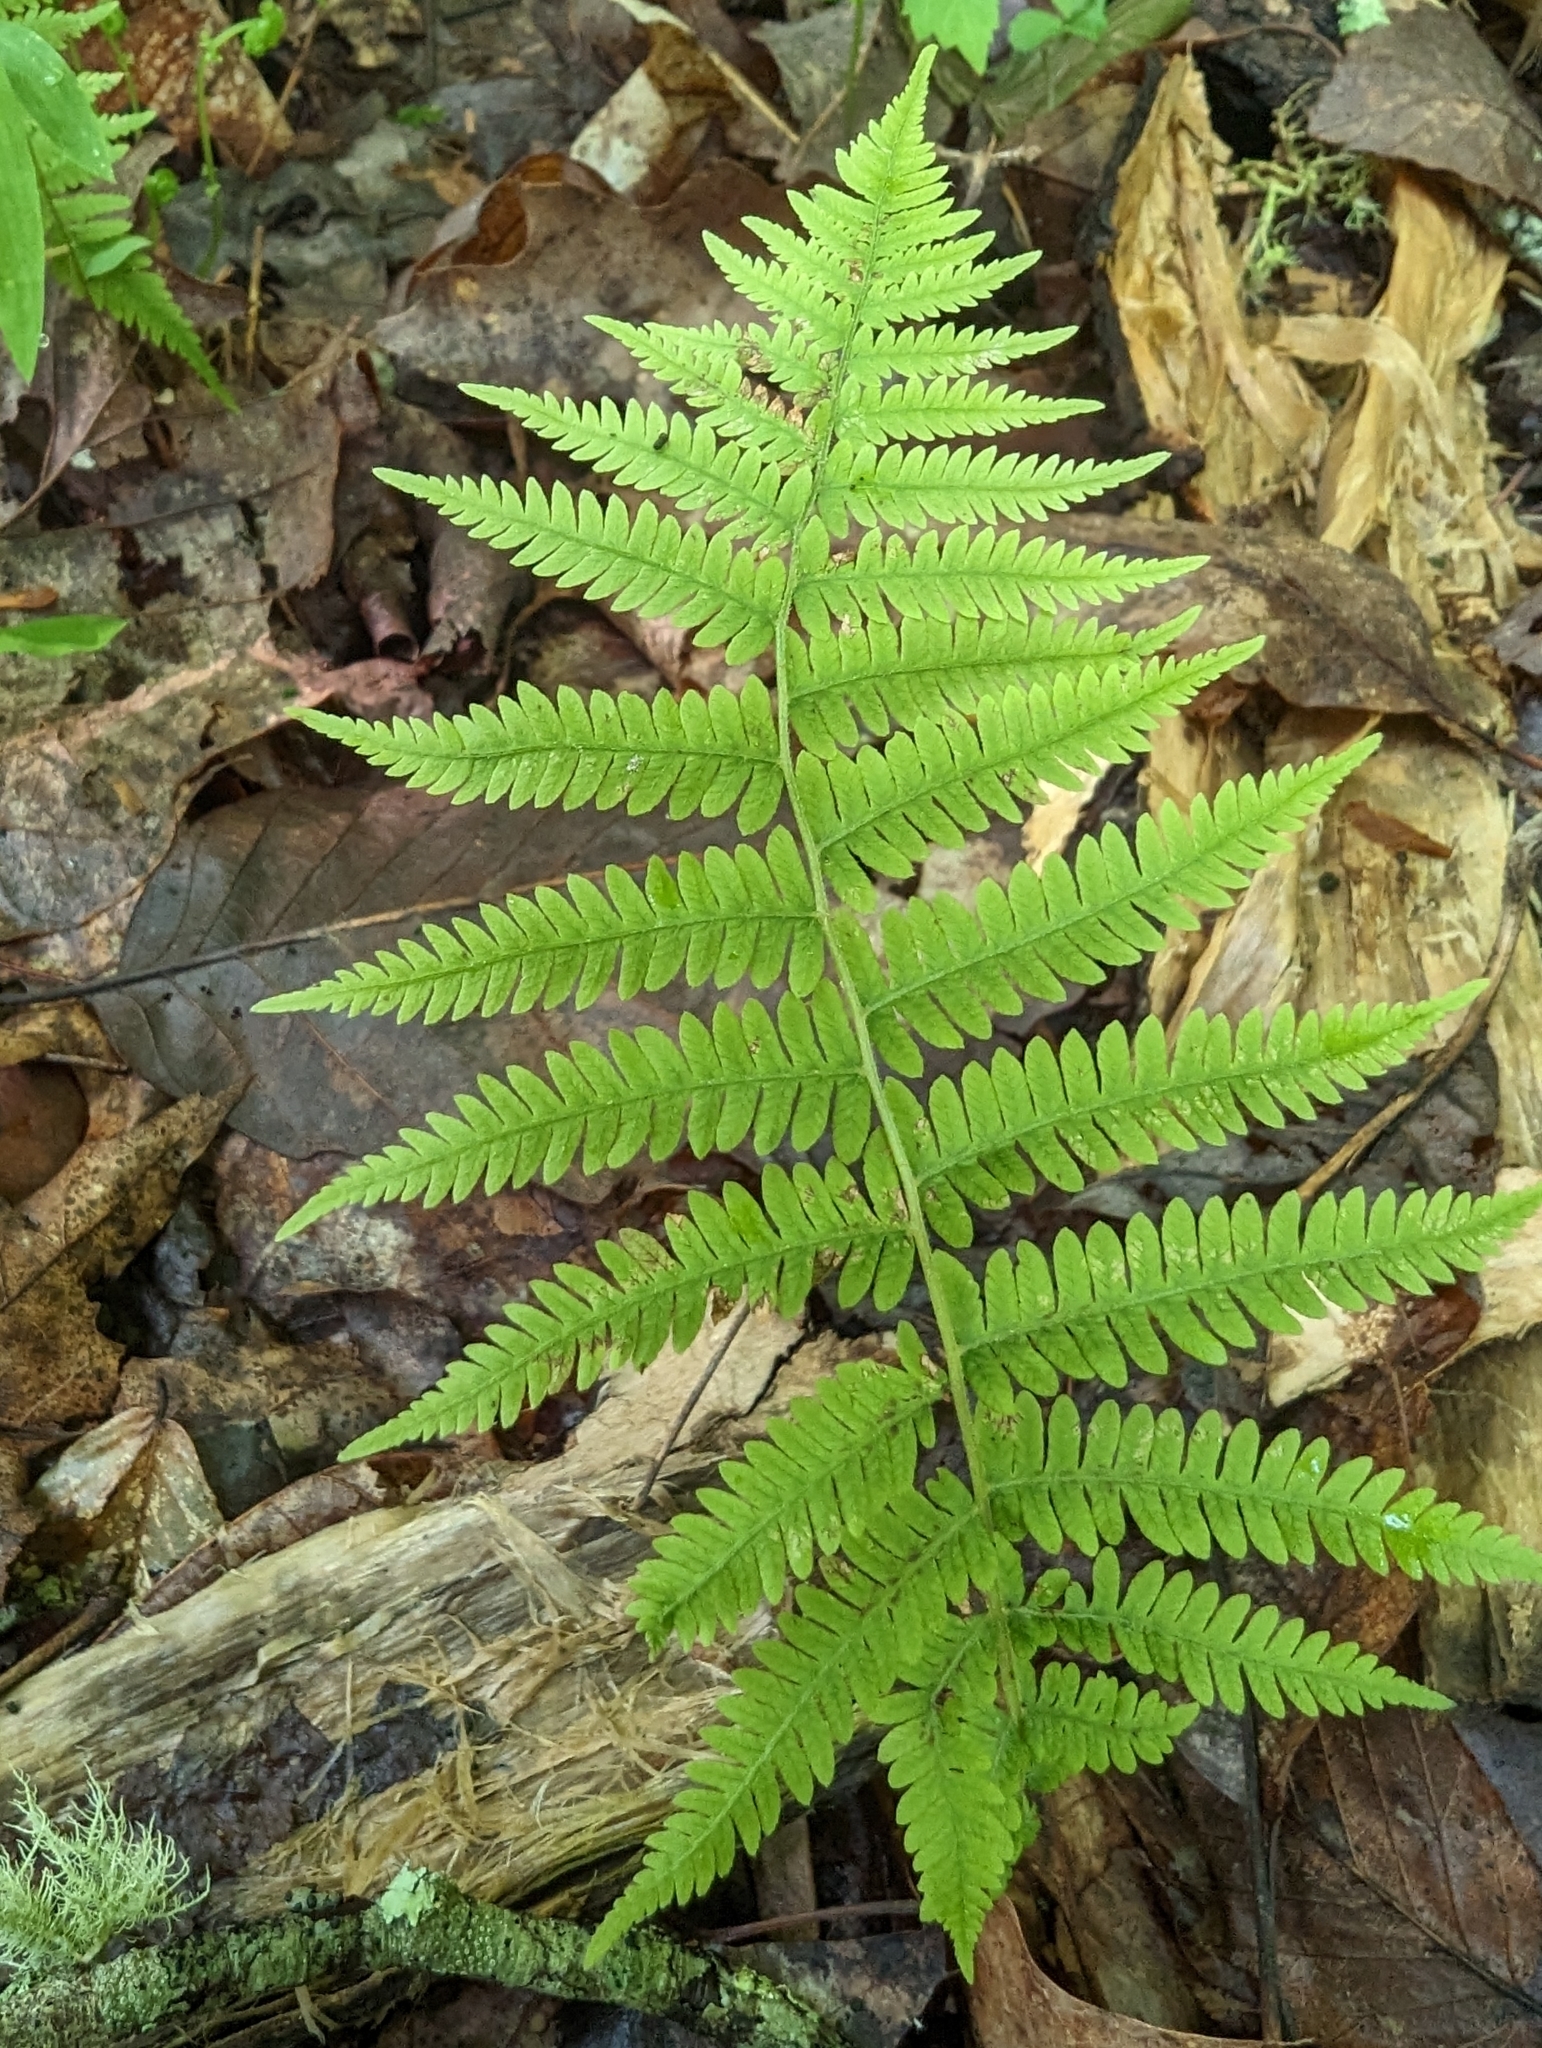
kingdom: Plantae
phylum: Tracheophyta
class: Polypodiopsida
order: Polypodiales
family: Thelypteridaceae
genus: Amauropelta
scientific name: Amauropelta noveboracensis
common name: New york fern
